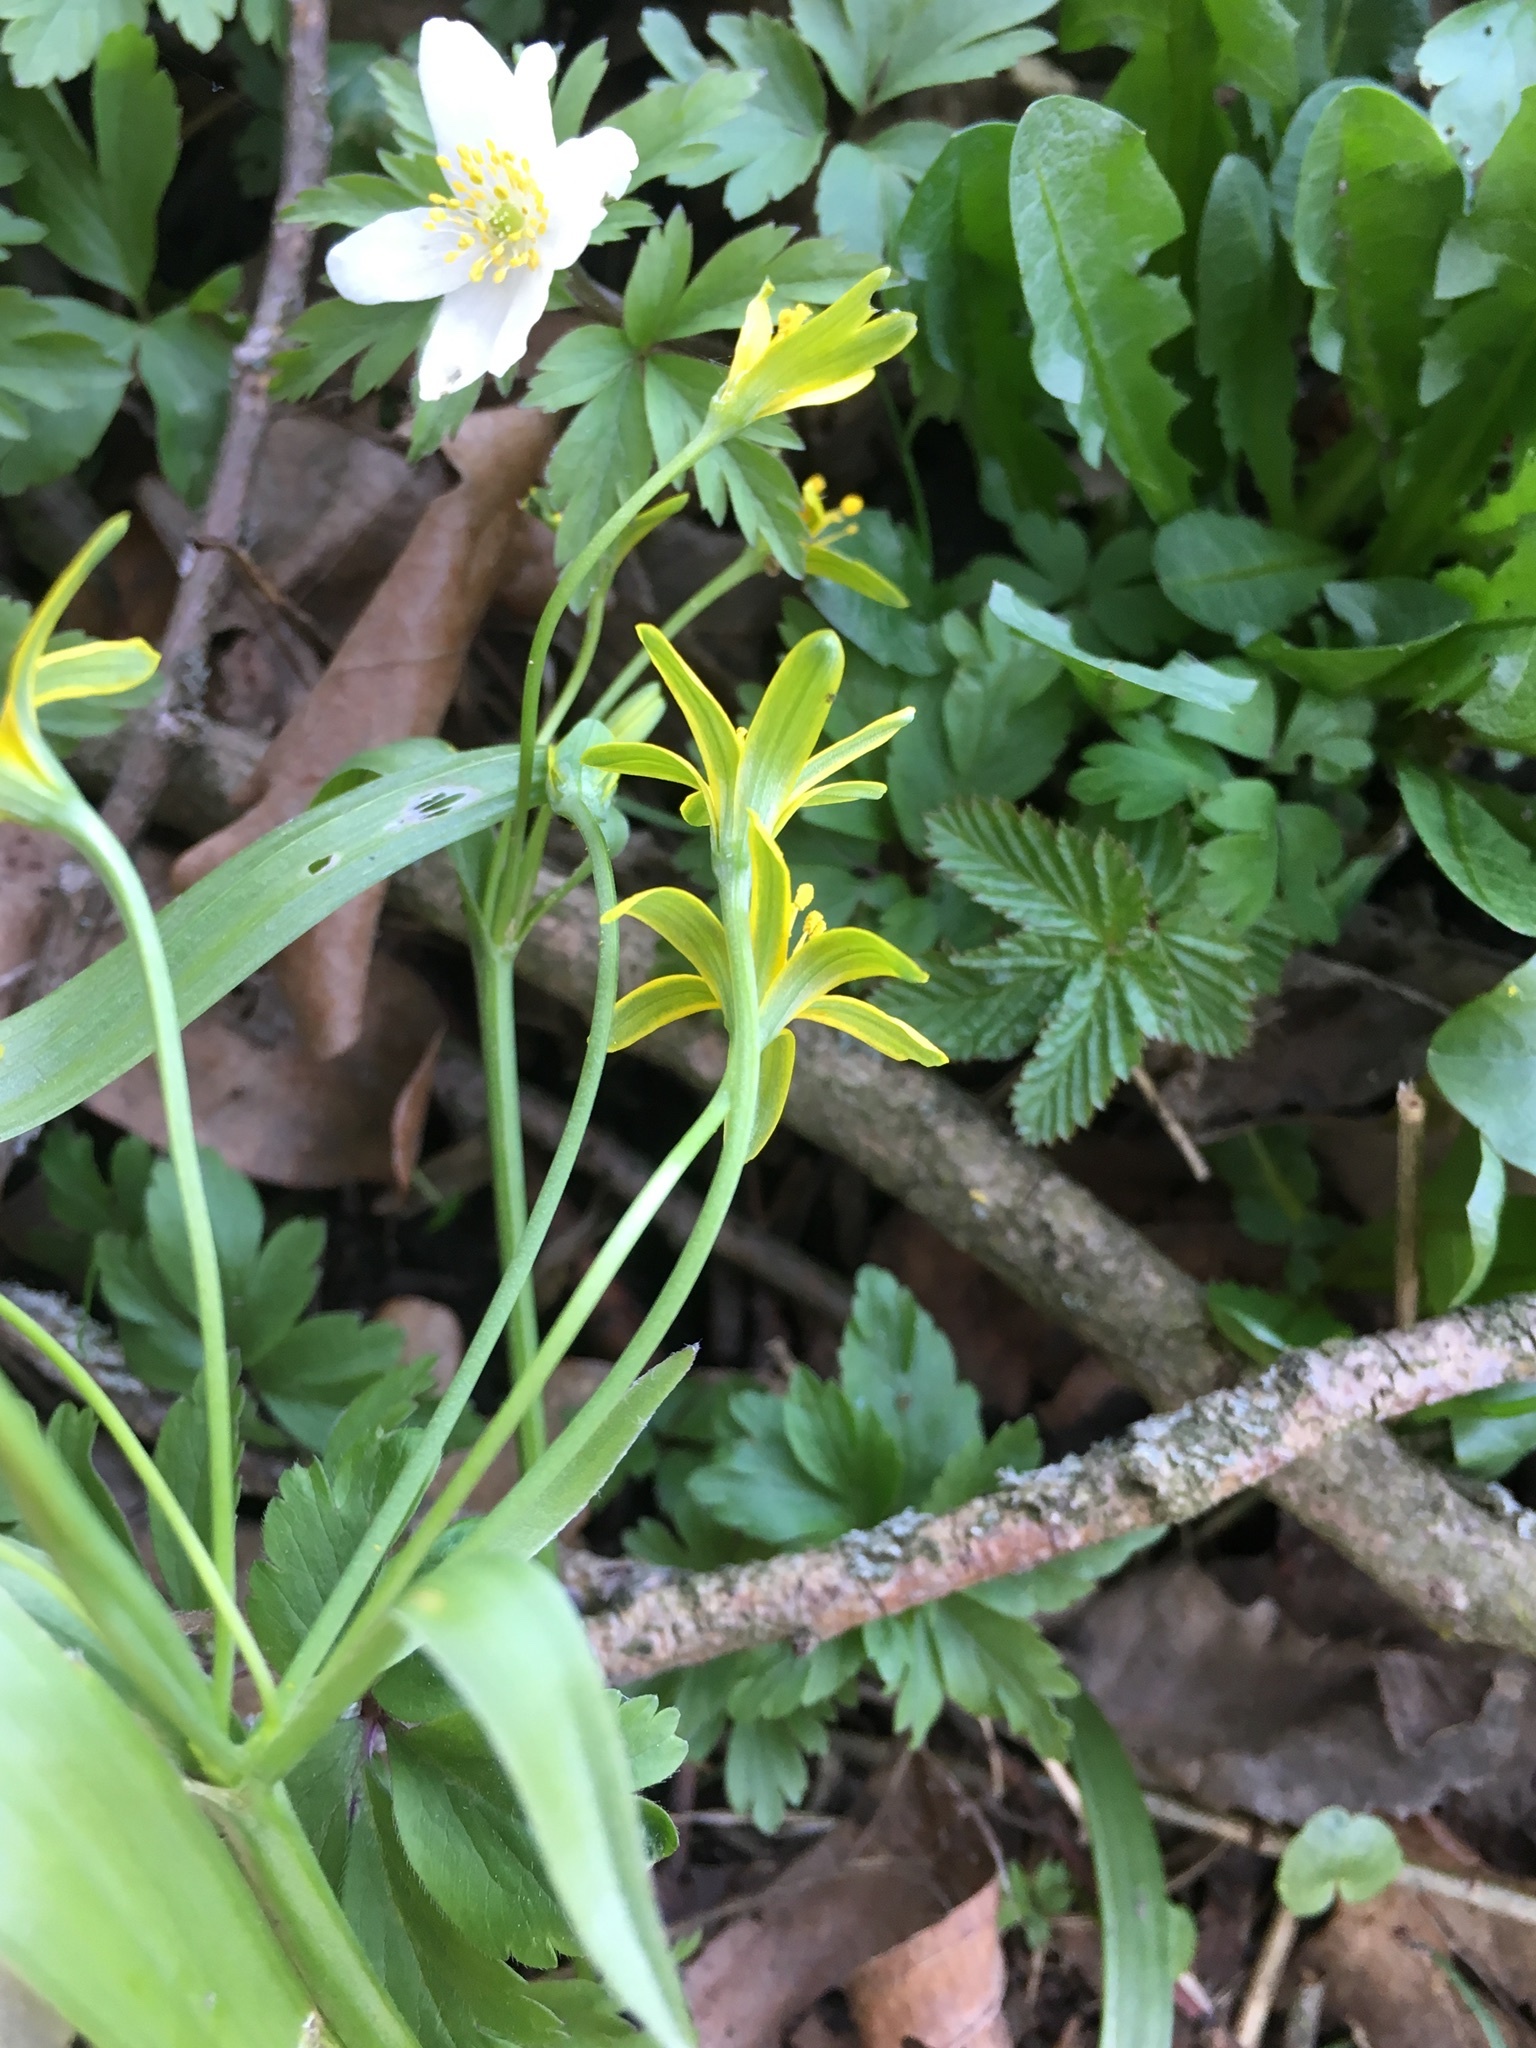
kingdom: Plantae
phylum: Tracheophyta
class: Liliopsida
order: Liliales
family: Liliaceae
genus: Gagea
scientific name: Gagea lutea
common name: Yellow star-of-bethlehem
